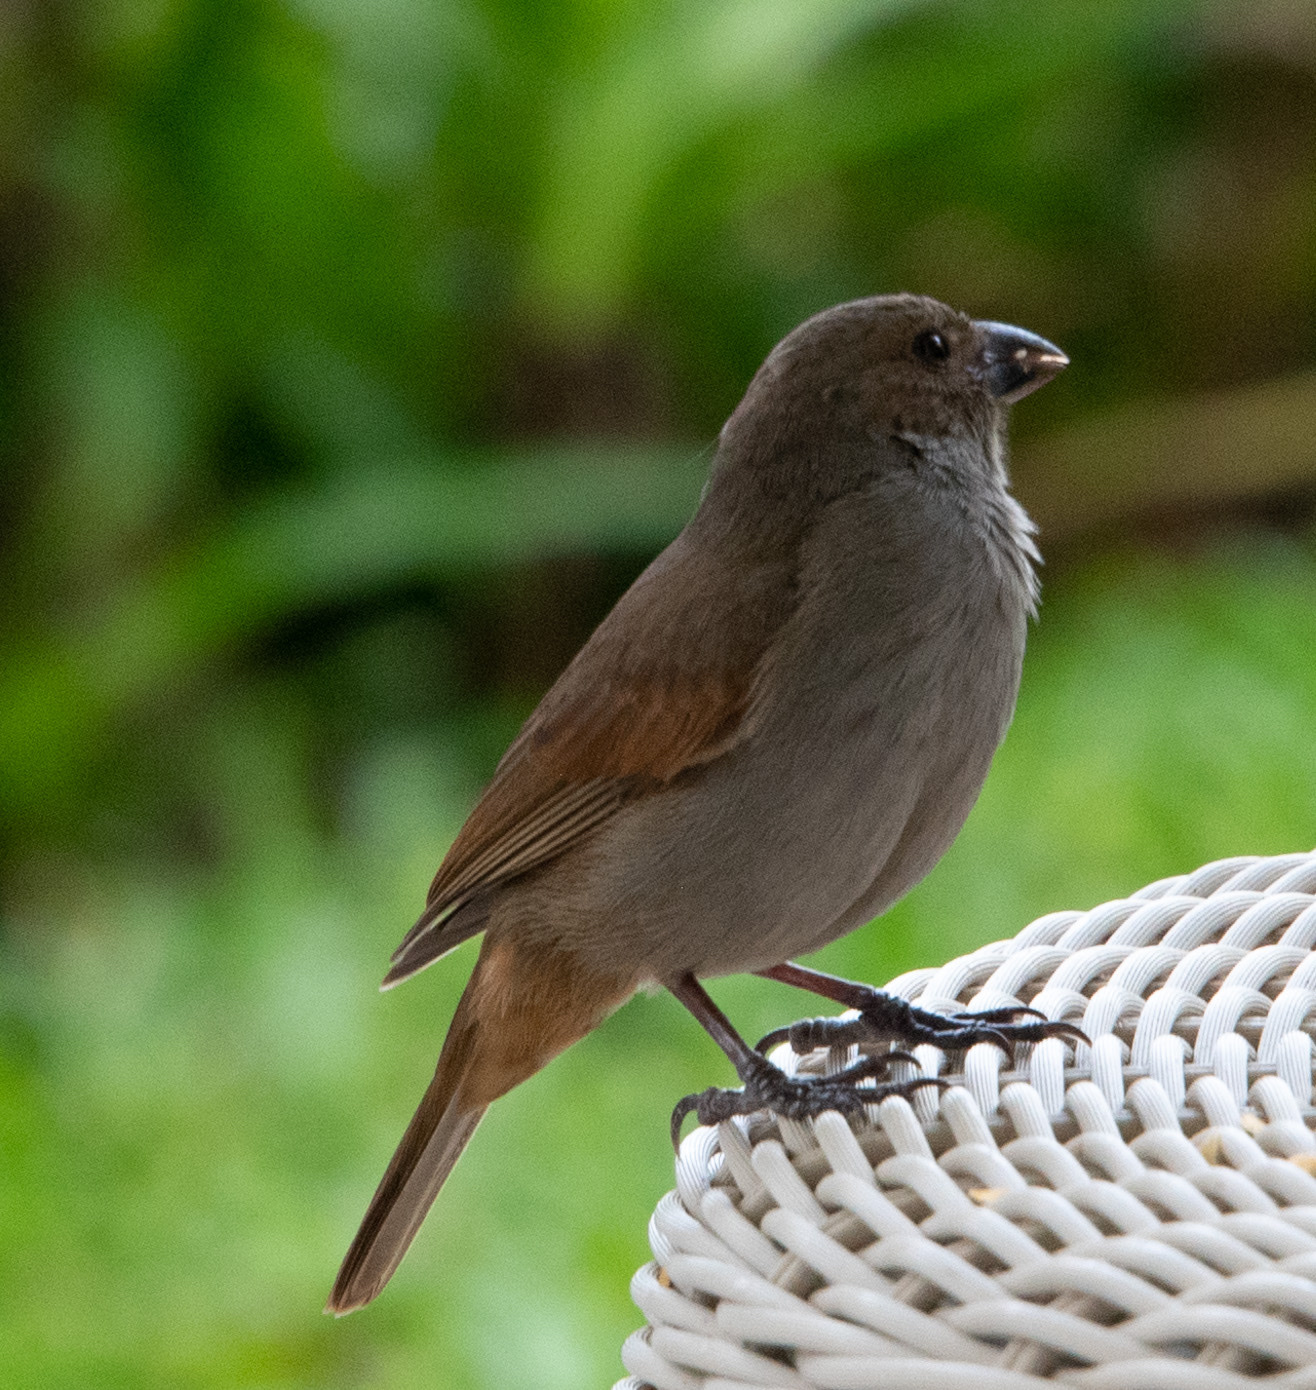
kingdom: Animalia
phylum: Chordata
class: Aves
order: Passeriformes
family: Thraupidae
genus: Loxigilla
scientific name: Loxigilla barbadensis
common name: Barbados bullfinch
